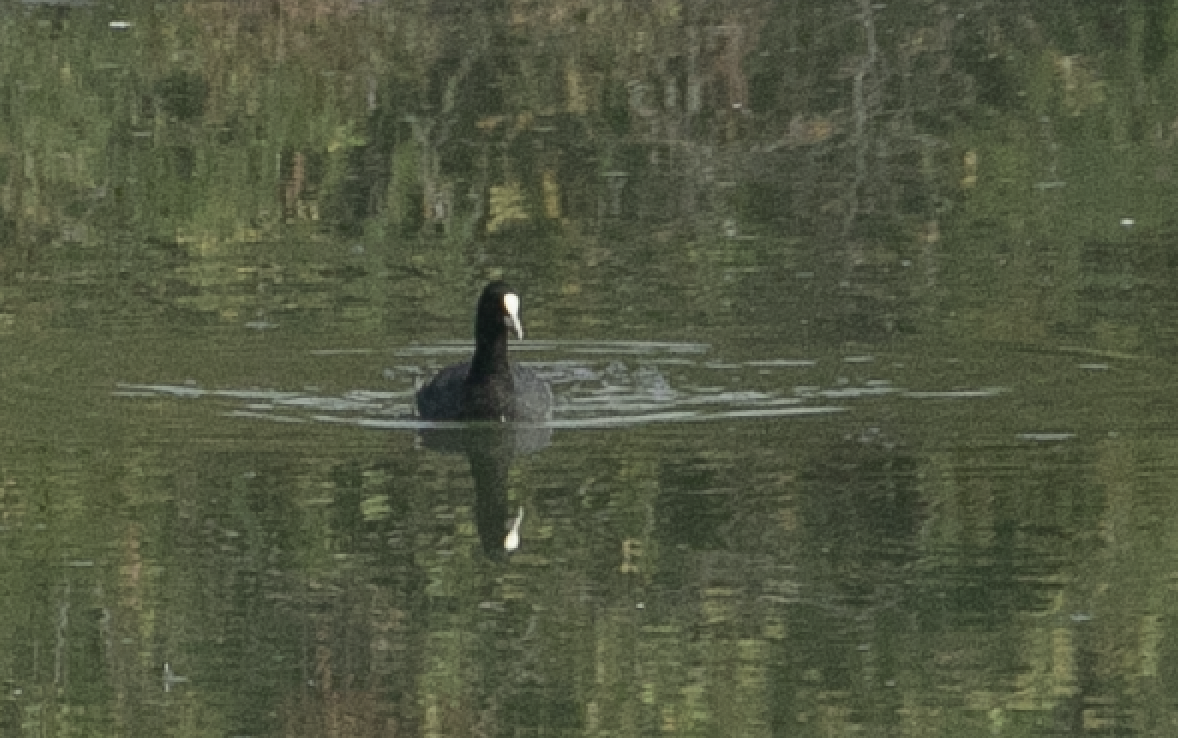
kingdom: Animalia
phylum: Chordata
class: Aves
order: Gruiformes
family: Rallidae
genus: Fulica
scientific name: Fulica atra
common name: Eurasian coot
